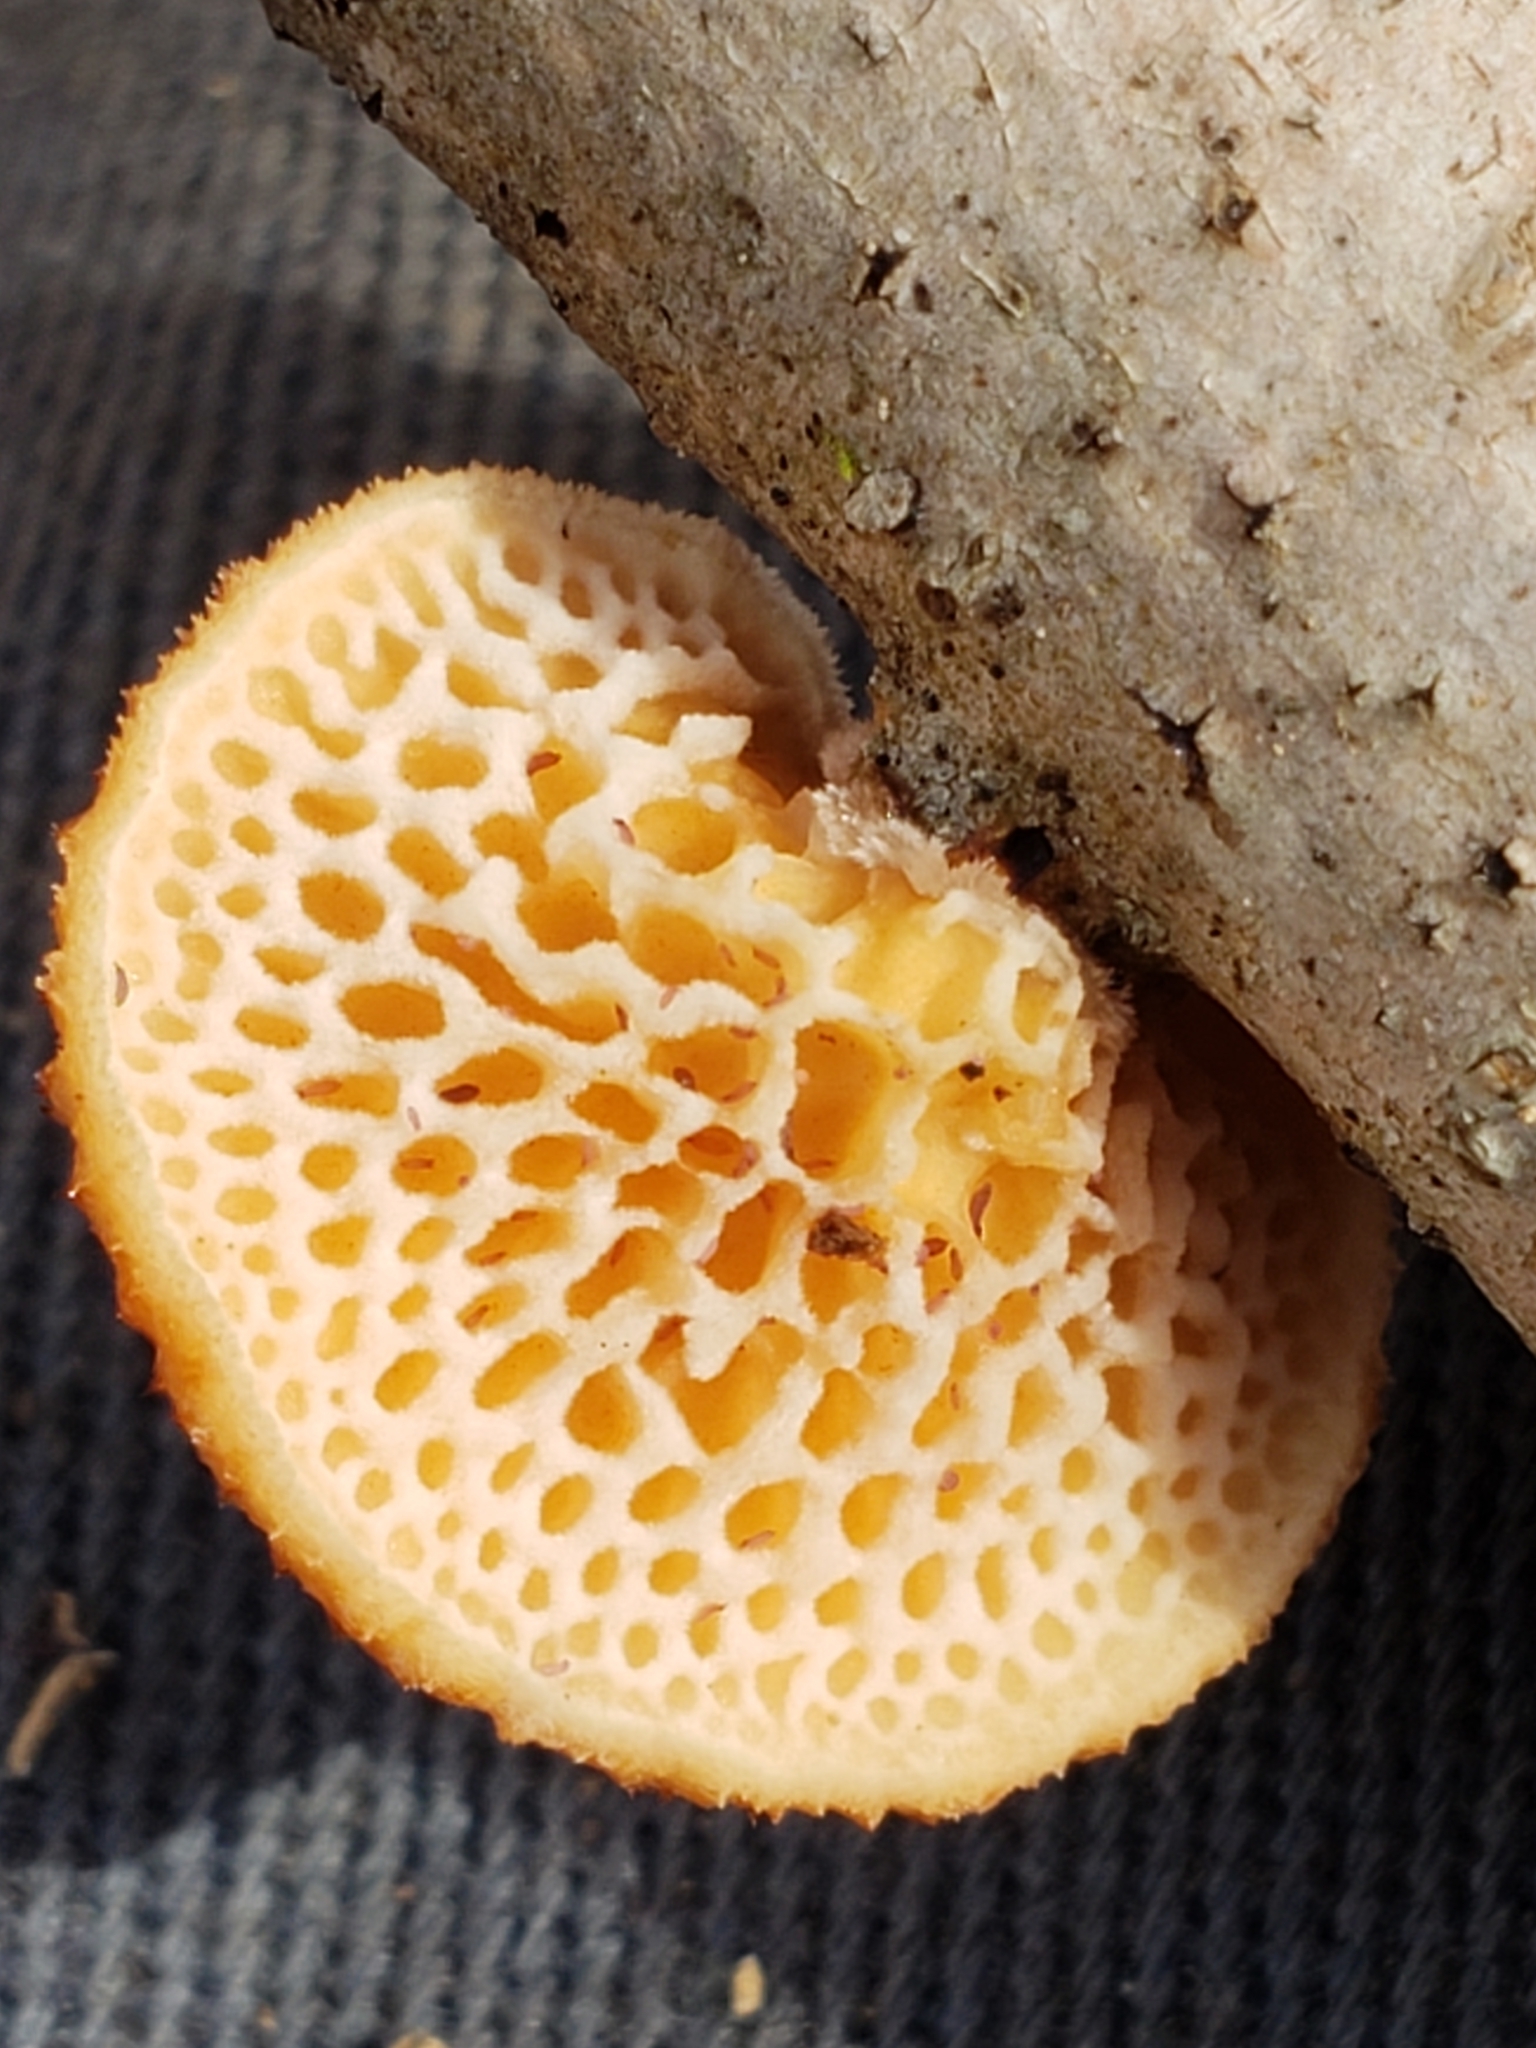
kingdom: Fungi
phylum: Basidiomycota
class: Agaricomycetes
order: Polyporales
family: Polyporaceae
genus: Neofavolus
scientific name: Neofavolus alveolaris
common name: Hexagonal-pored polypore
